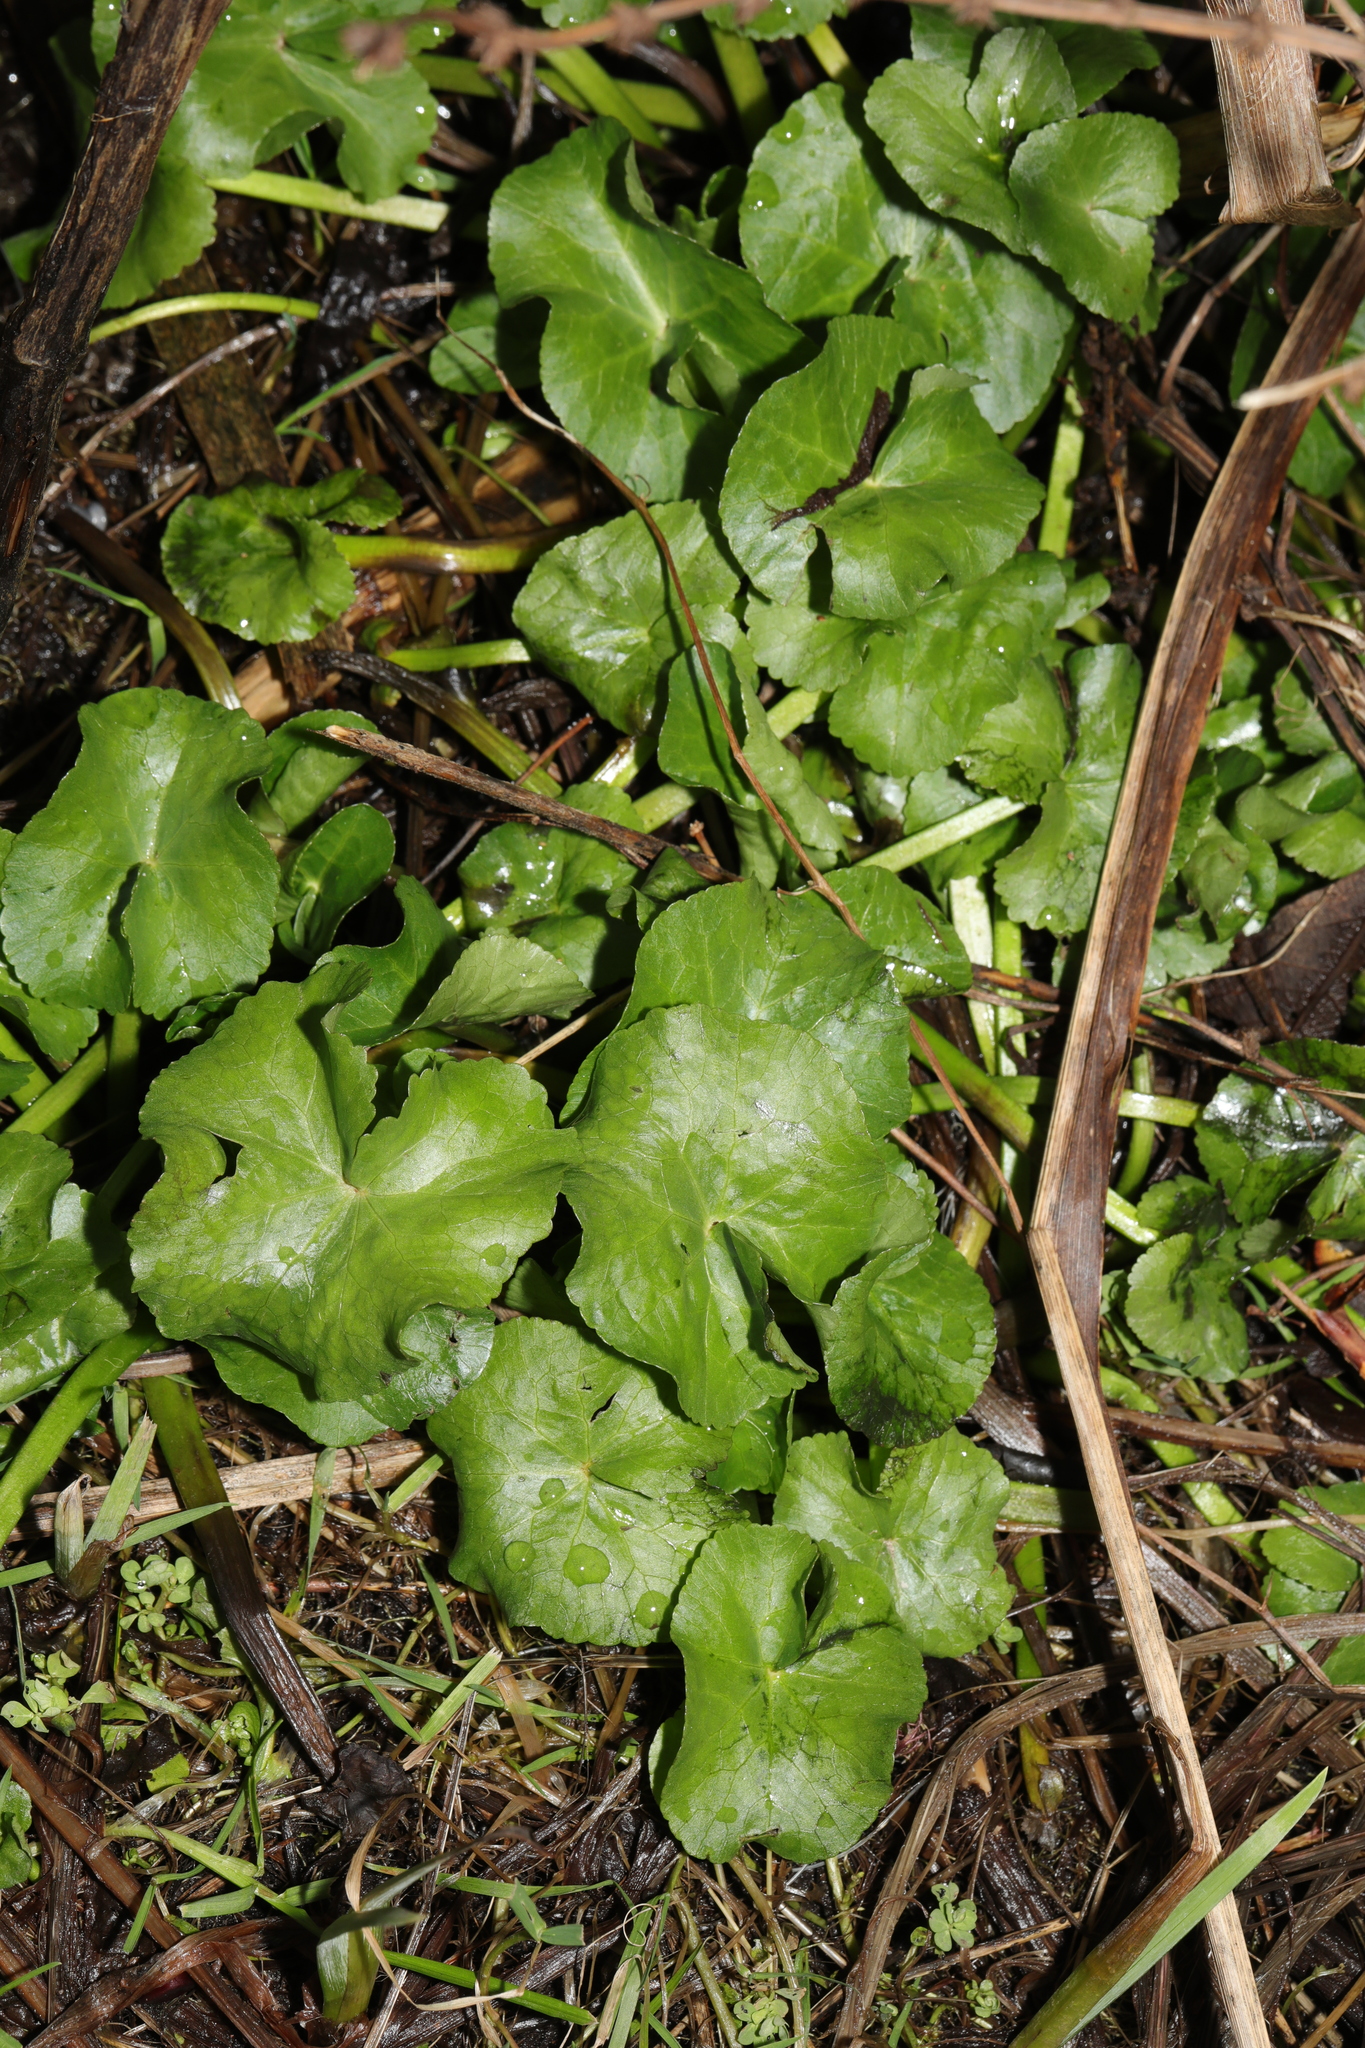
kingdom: Plantae
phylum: Tracheophyta
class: Magnoliopsida
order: Ranunculales
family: Ranunculaceae
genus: Caltha
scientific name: Caltha palustris
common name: Marsh marigold
